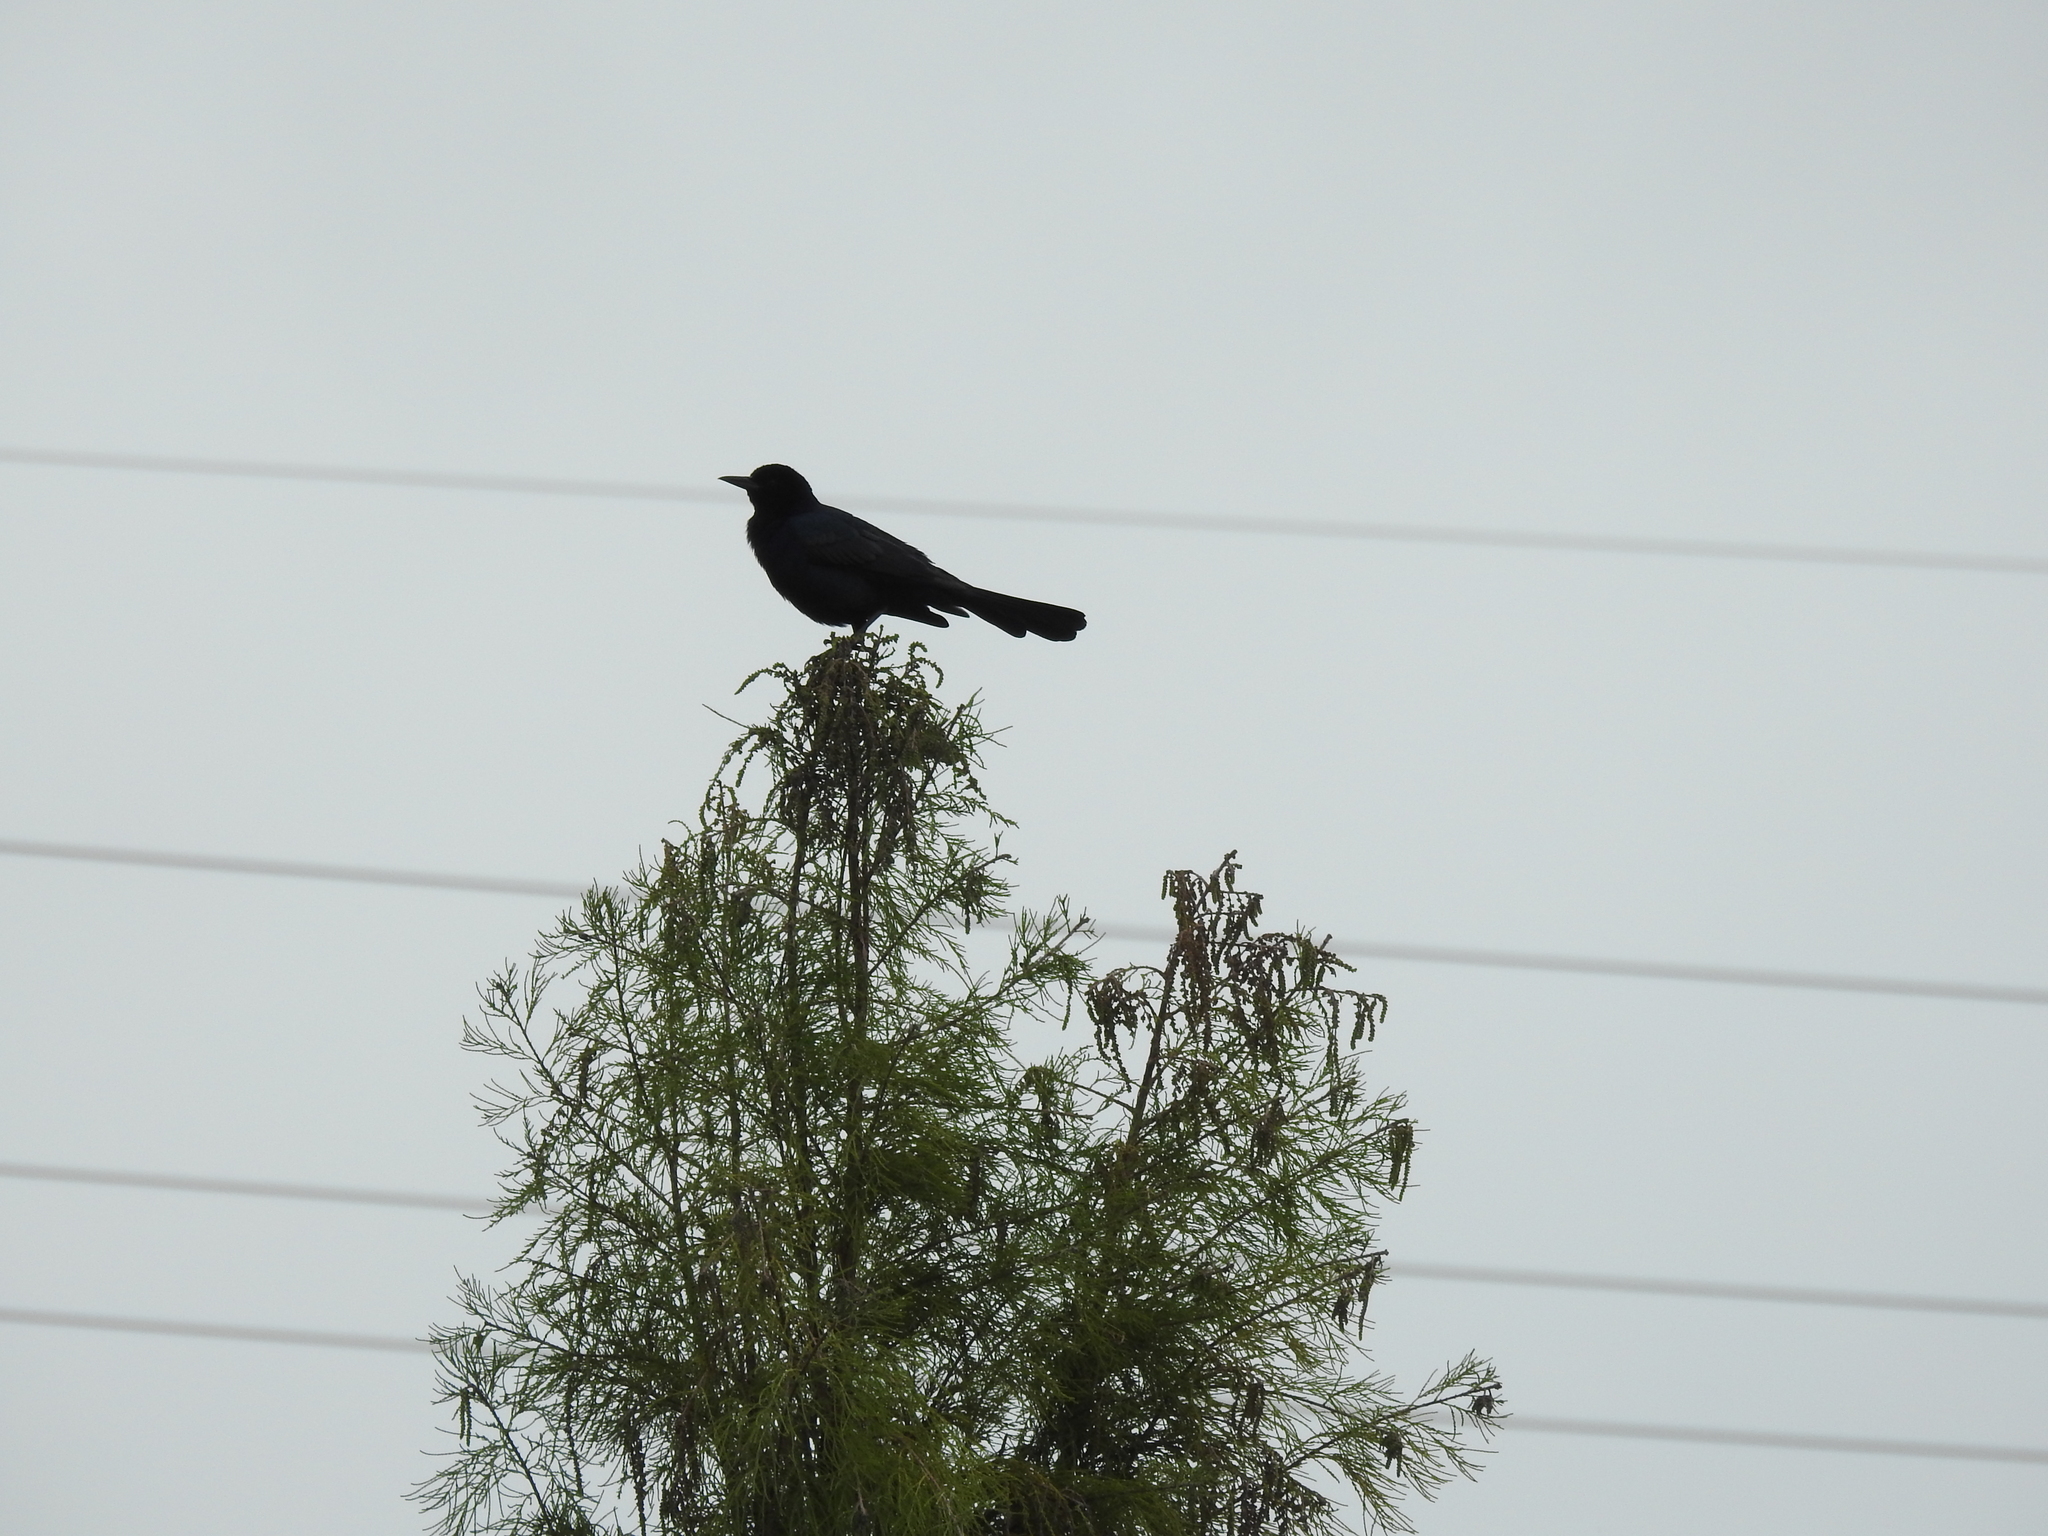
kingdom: Animalia
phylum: Chordata
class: Aves
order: Passeriformes
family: Icteridae
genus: Quiscalus
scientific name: Quiscalus major
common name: Boat-tailed grackle
